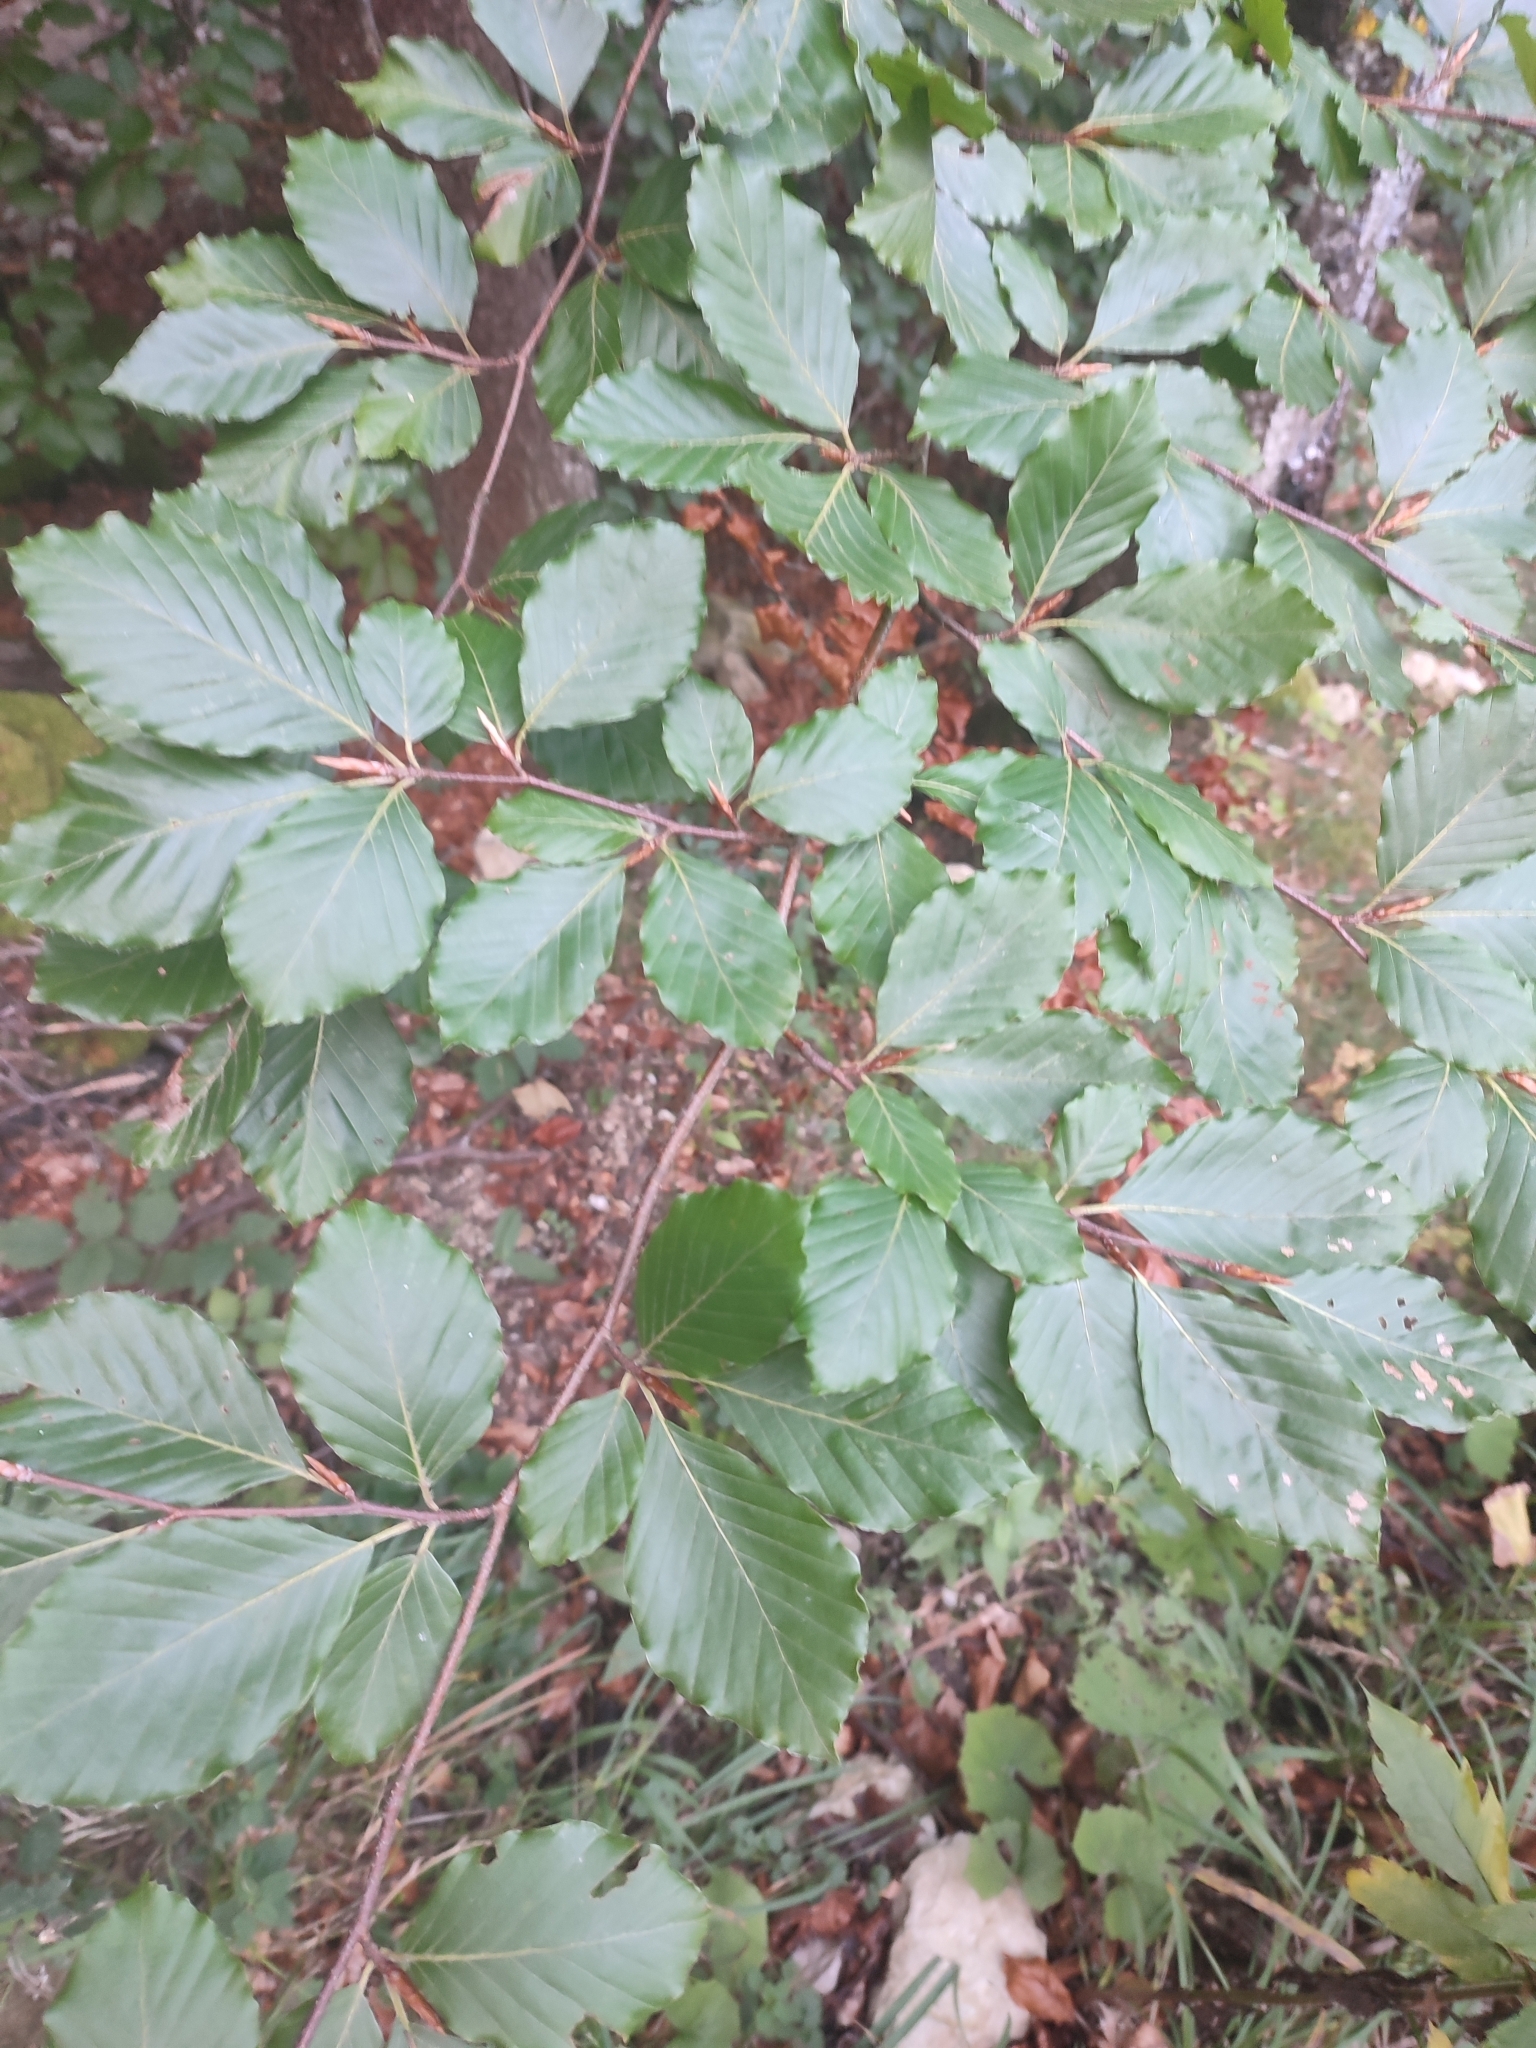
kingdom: Plantae
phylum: Tracheophyta
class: Magnoliopsida
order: Fagales
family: Fagaceae
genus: Fagus
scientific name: Fagus sylvatica
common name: Beech
